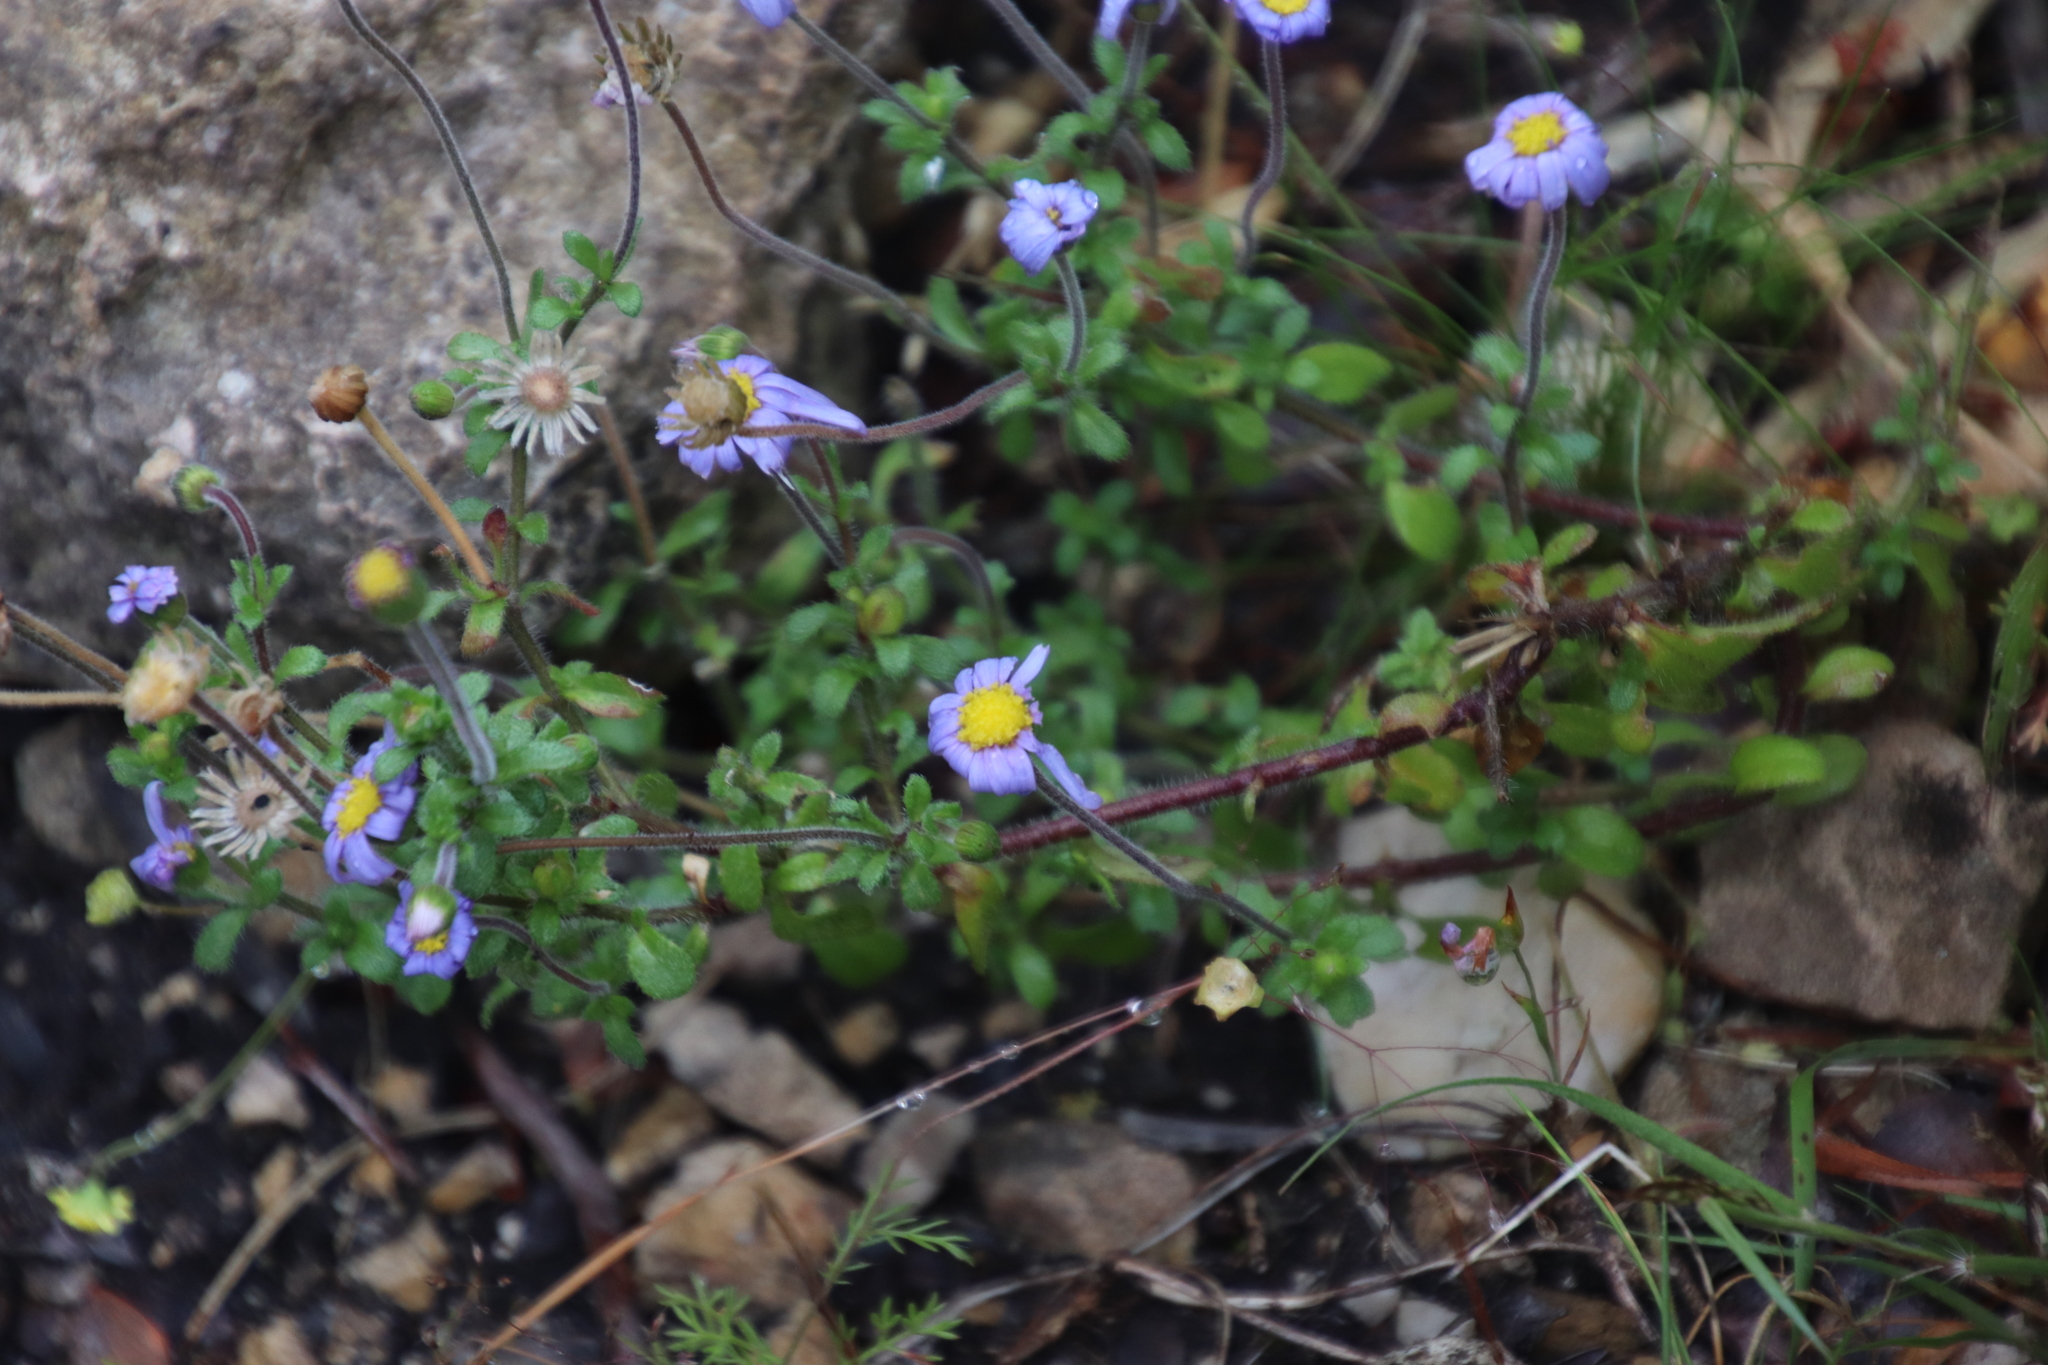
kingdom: Plantae
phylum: Tracheophyta
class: Magnoliopsida
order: Asterales
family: Asteraceae
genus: Felicia
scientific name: Felicia amoena
